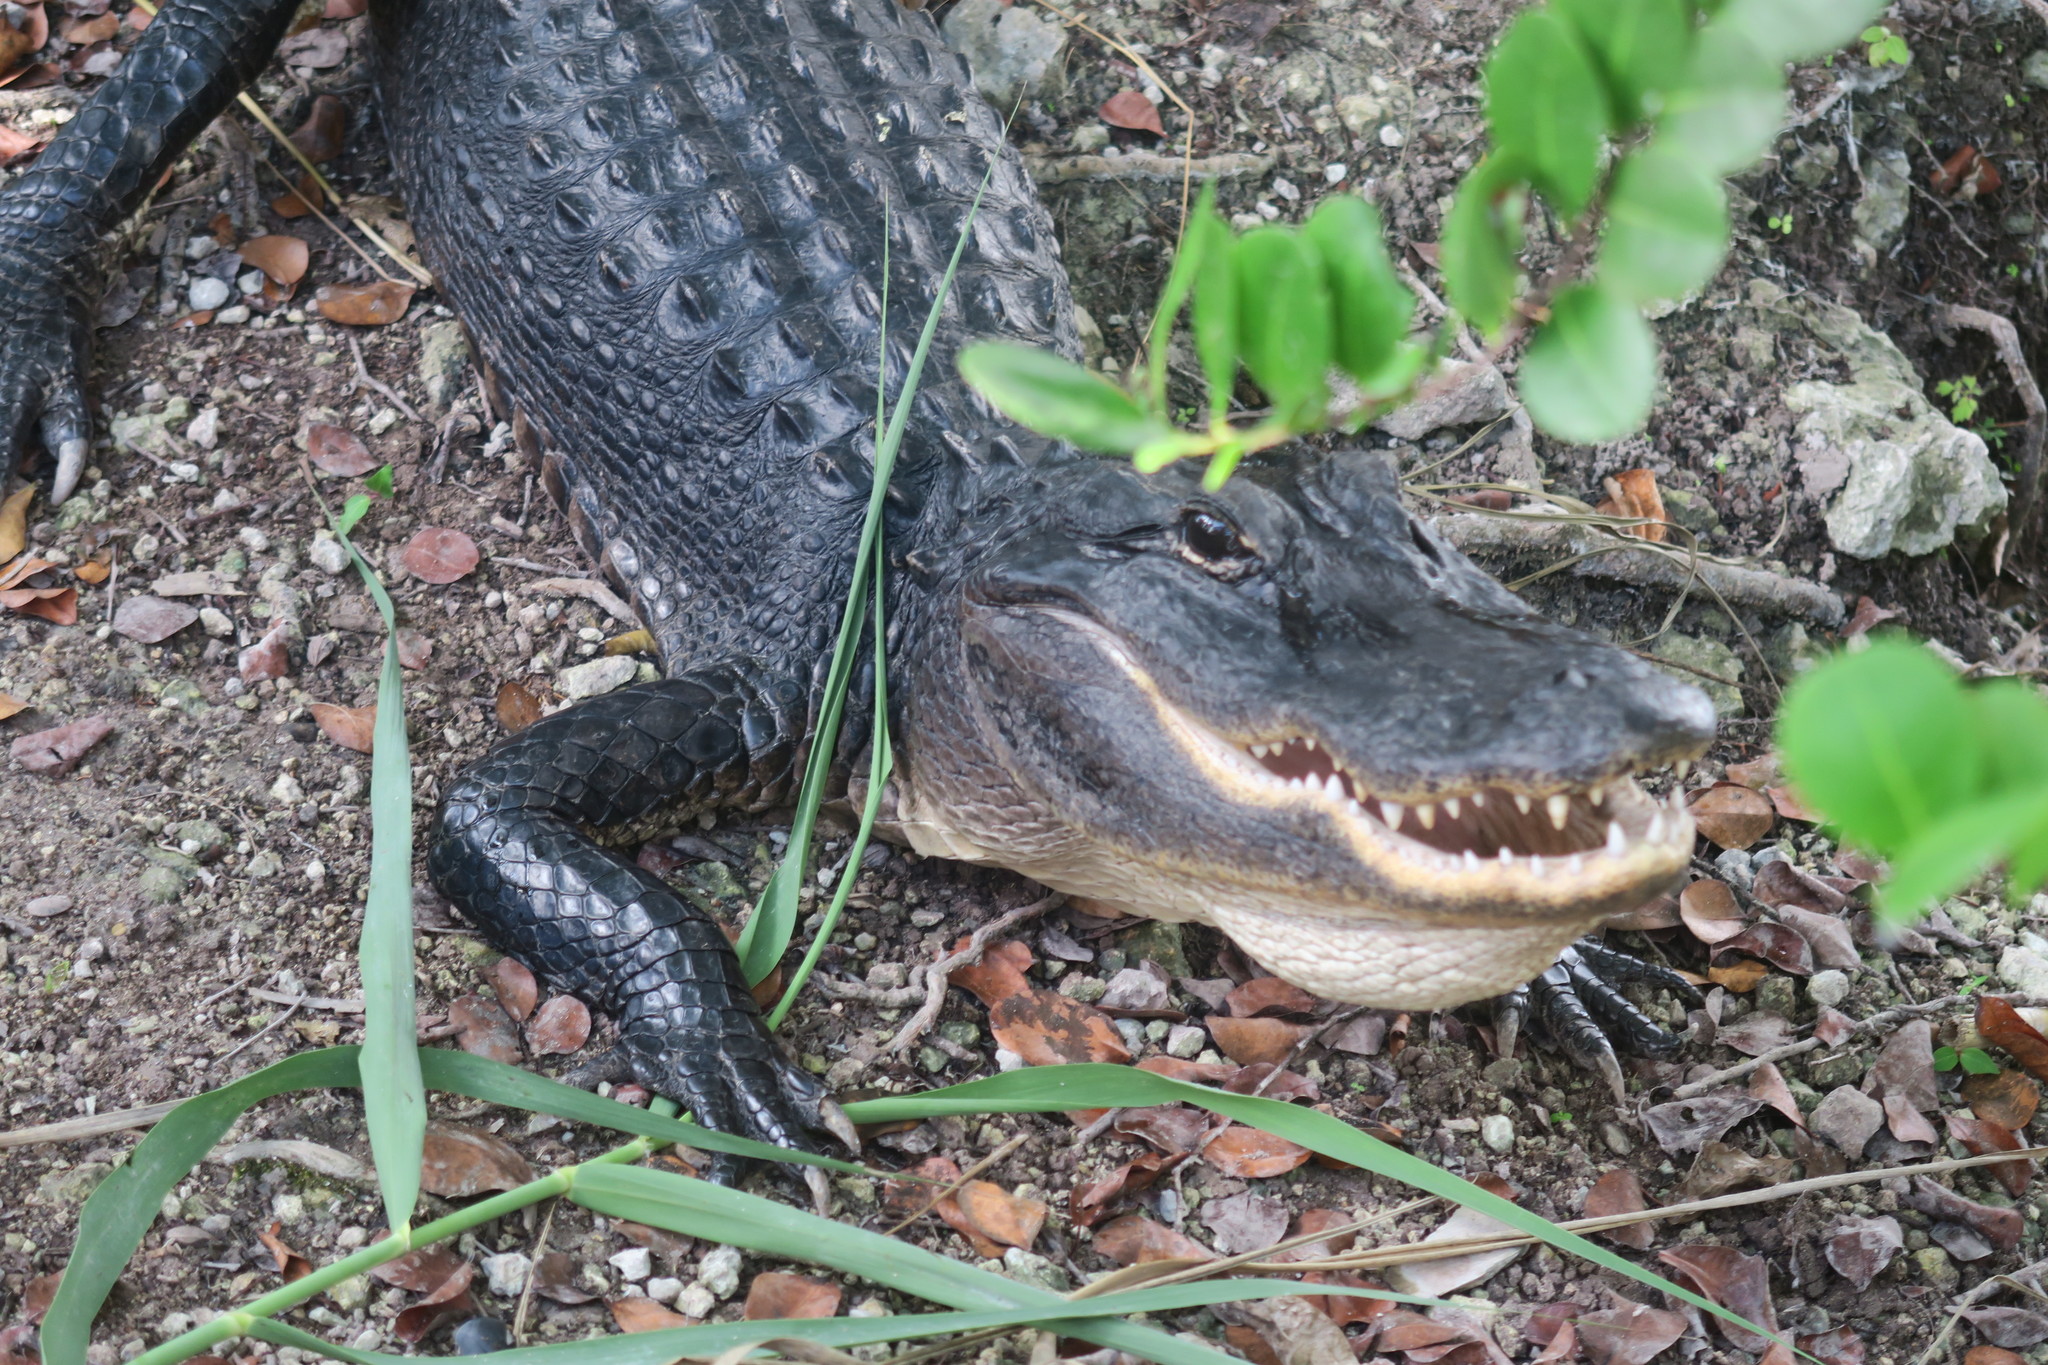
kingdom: Animalia
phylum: Chordata
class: Crocodylia
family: Alligatoridae
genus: Alligator
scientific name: Alligator mississippiensis
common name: American alligator
